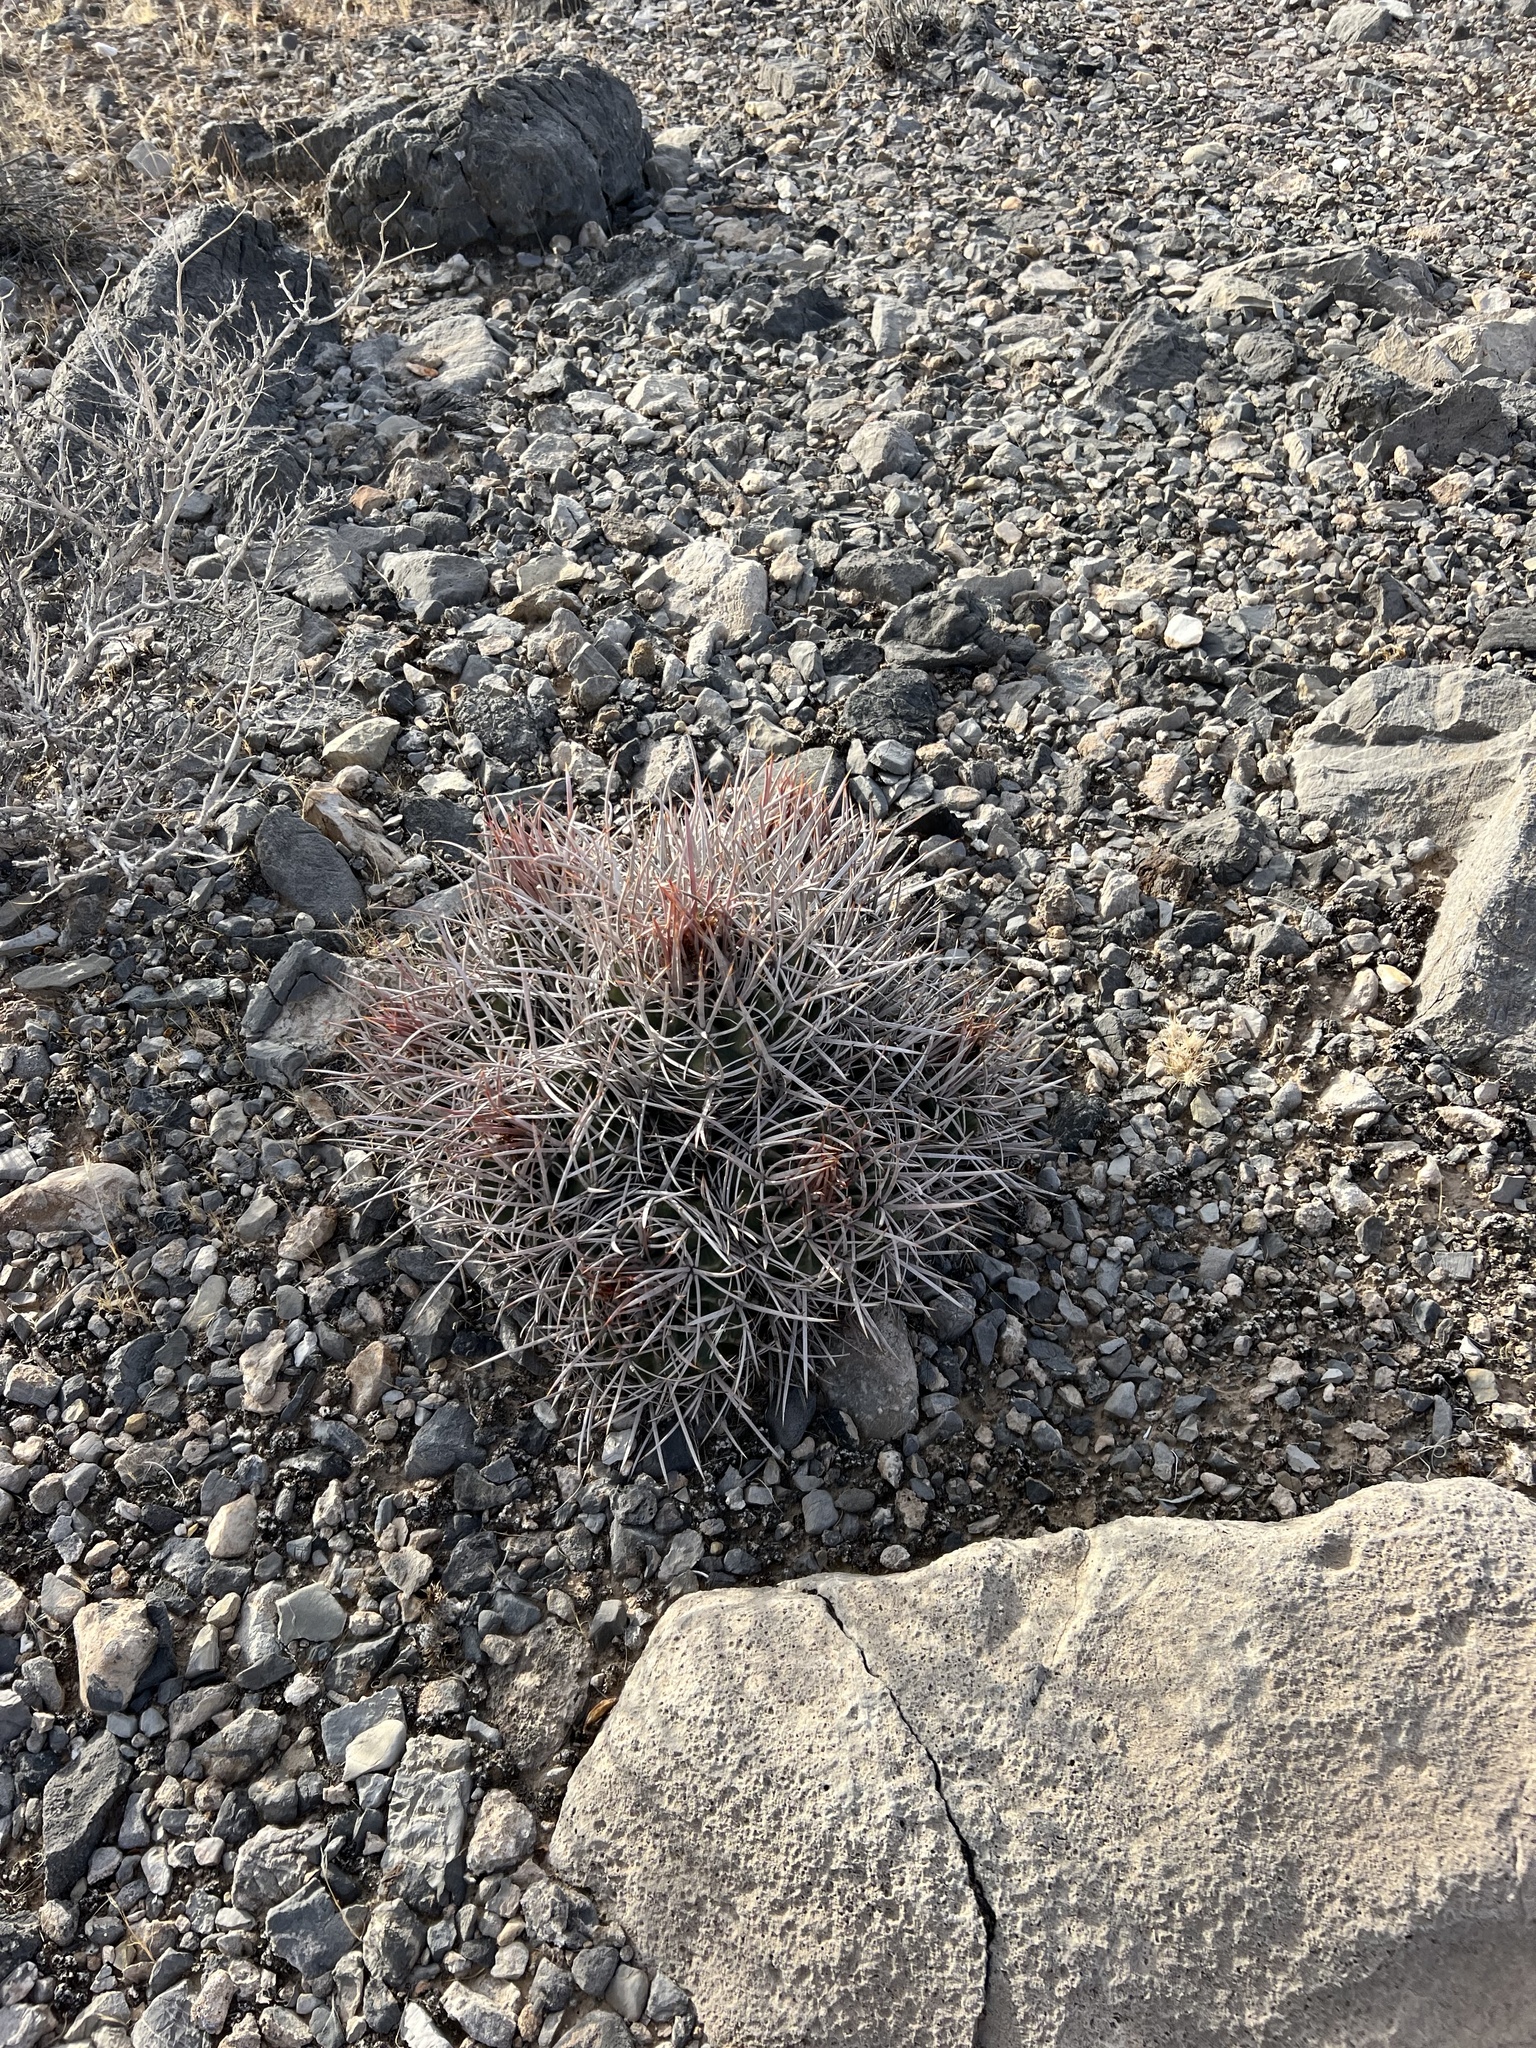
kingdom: Plantae
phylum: Tracheophyta
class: Magnoliopsida
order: Caryophyllales
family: Cactaceae
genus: Echinocactus
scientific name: Echinocactus polycephalus
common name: Cottontop cactus
